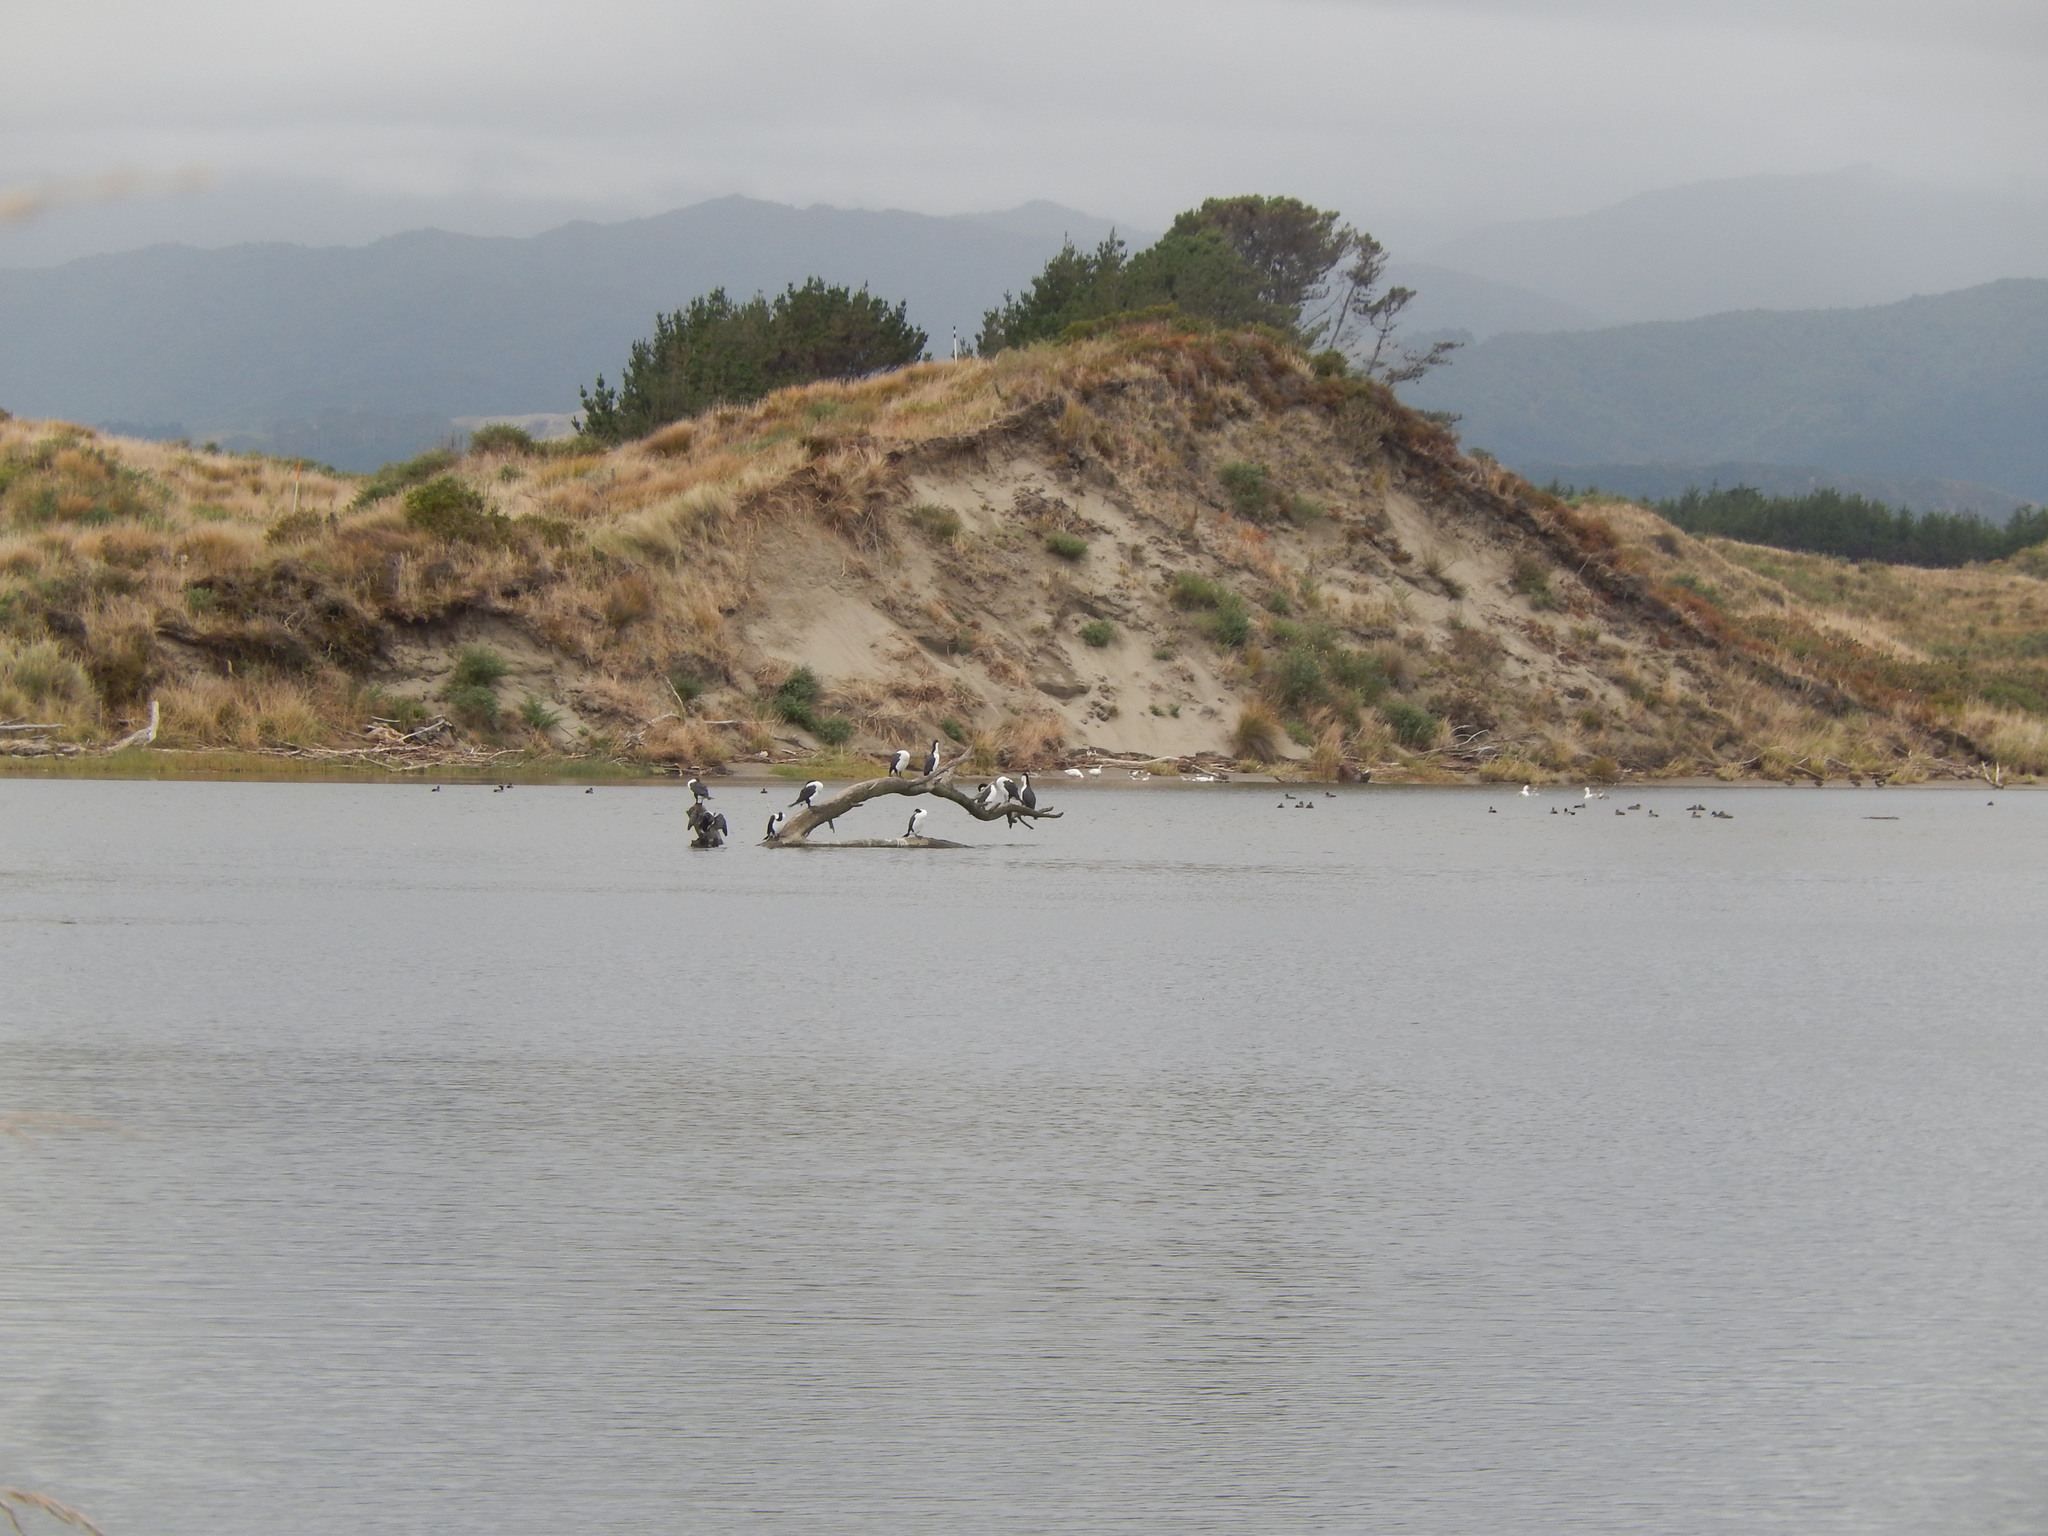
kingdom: Animalia
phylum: Chordata
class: Aves
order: Suliformes
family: Phalacrocoracidae
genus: Phalacrocorax
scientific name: Phalacrocorax varius
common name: Pied cormorant
